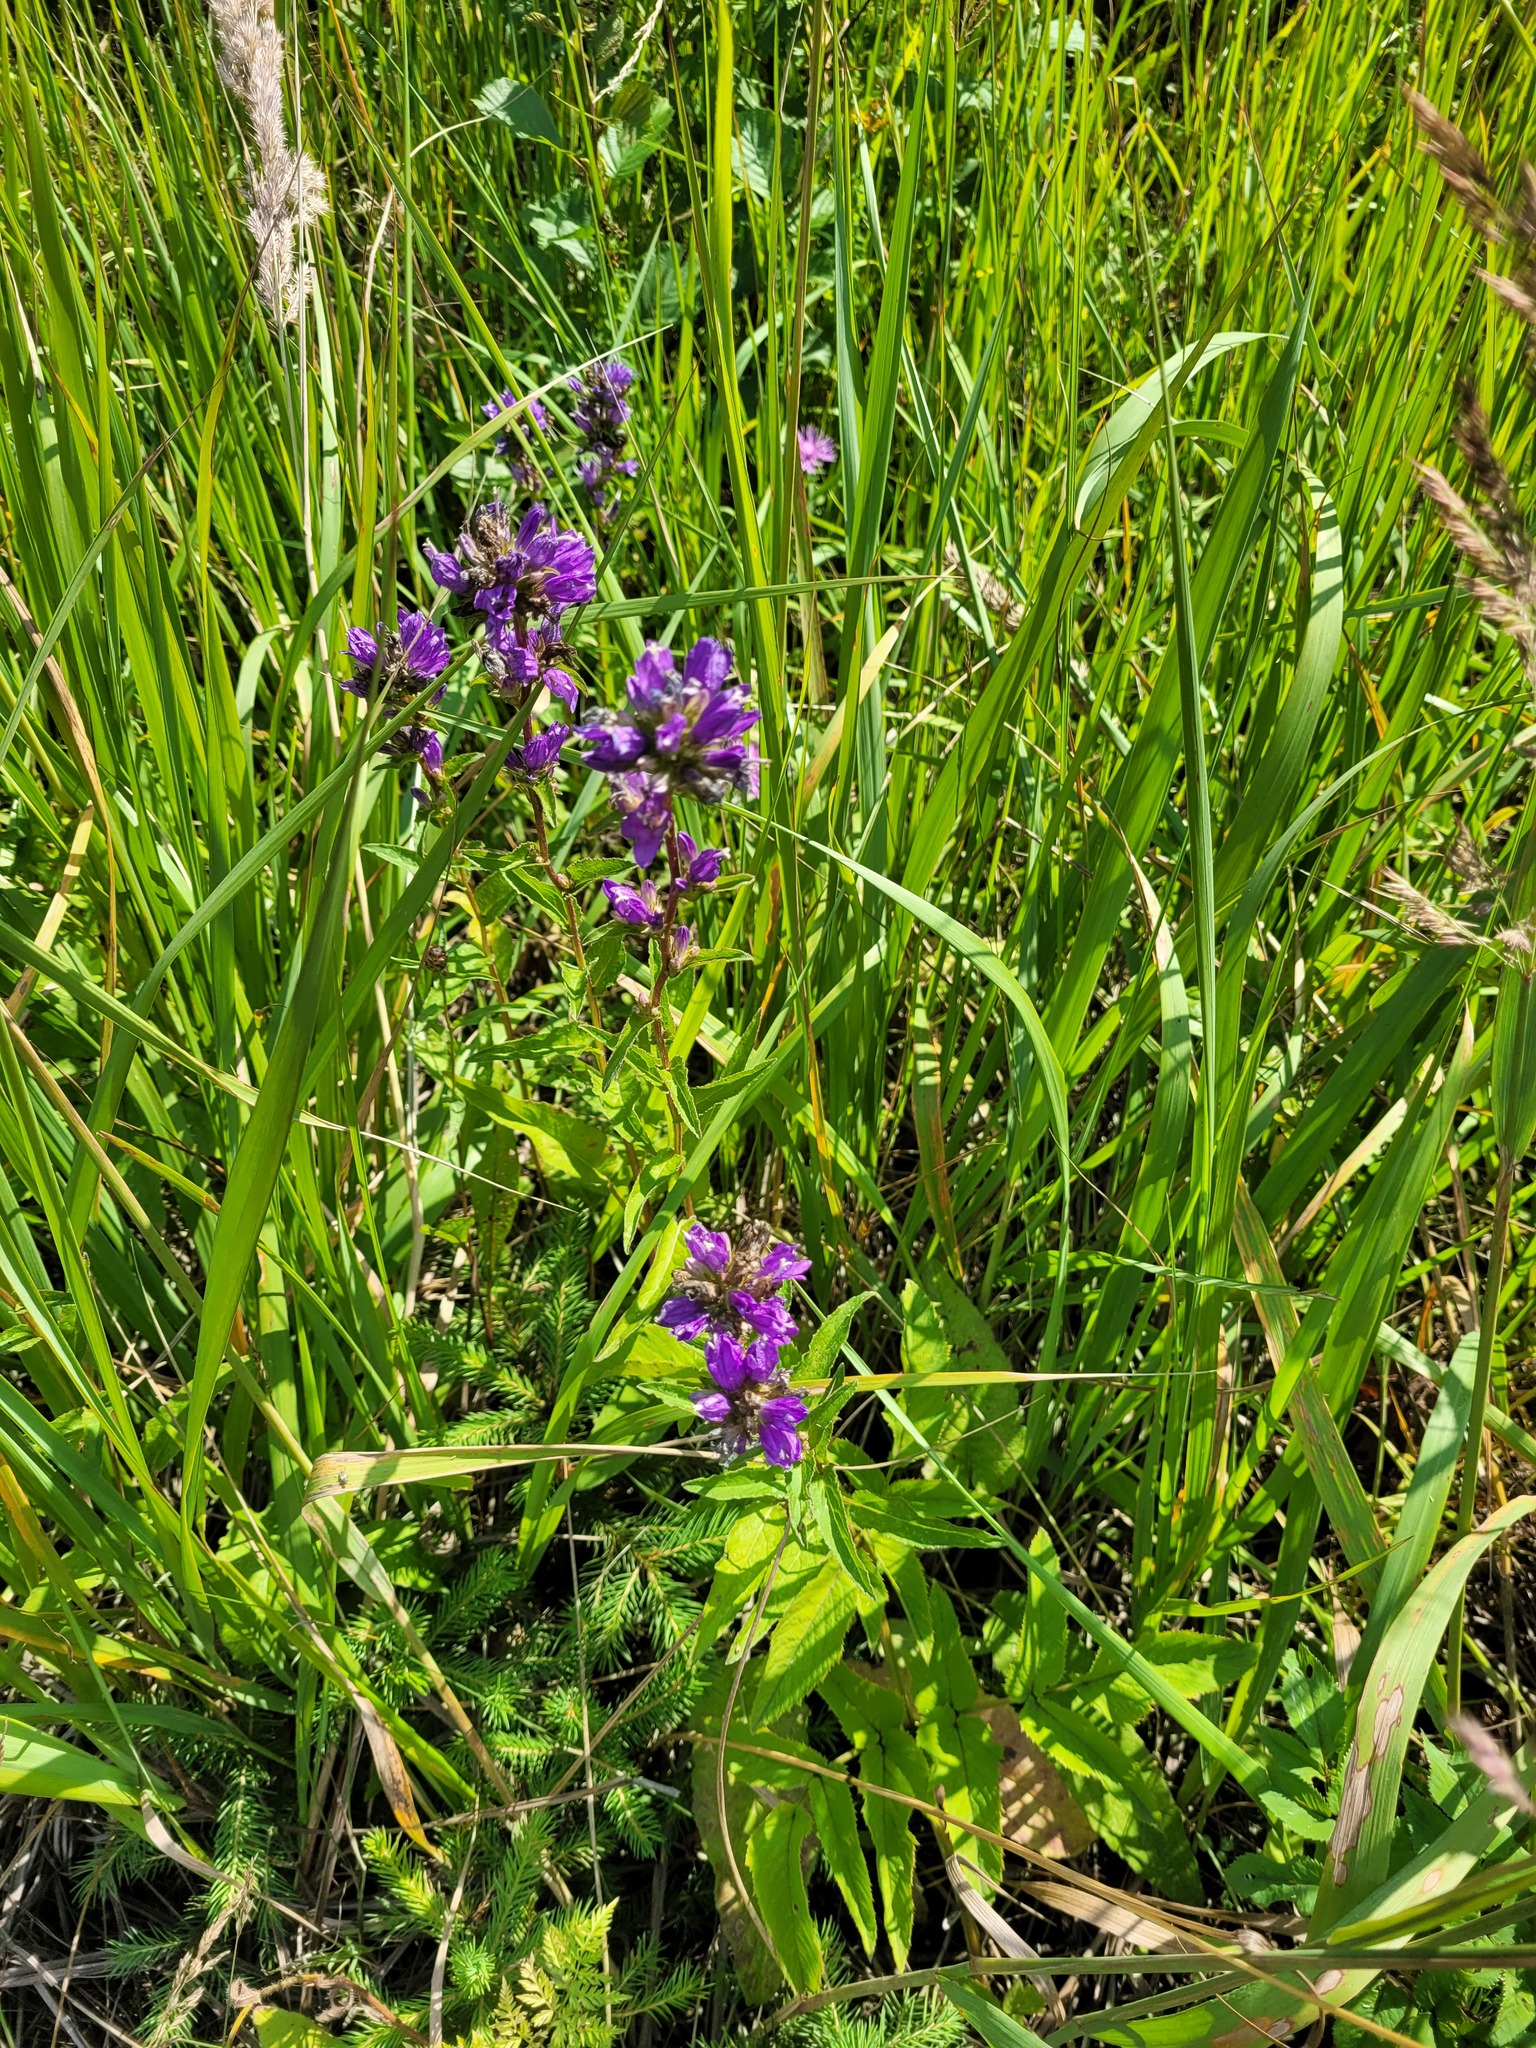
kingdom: Plantae
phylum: Tracheophyta
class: Magnoliopsida
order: Asterales
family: Campanulaceae
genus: Campanula
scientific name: Campanula glomerata
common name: Clustered bellflower
